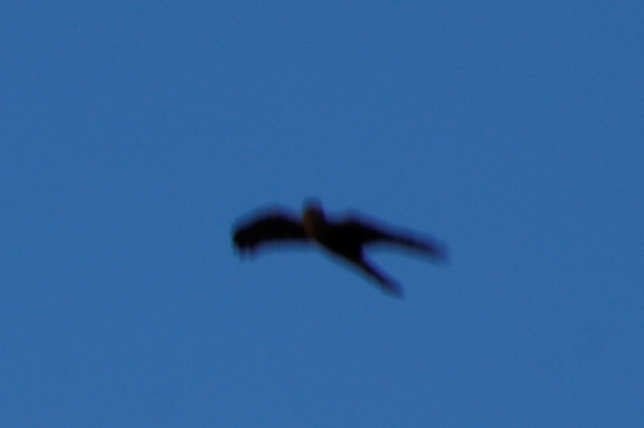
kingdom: Animalia
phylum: Chordata
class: Aves
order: Accipitriformes
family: Accipitridae
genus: Accipiter
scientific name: Accipiter rufiventris
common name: Rufous-breasted sparrowhawk
